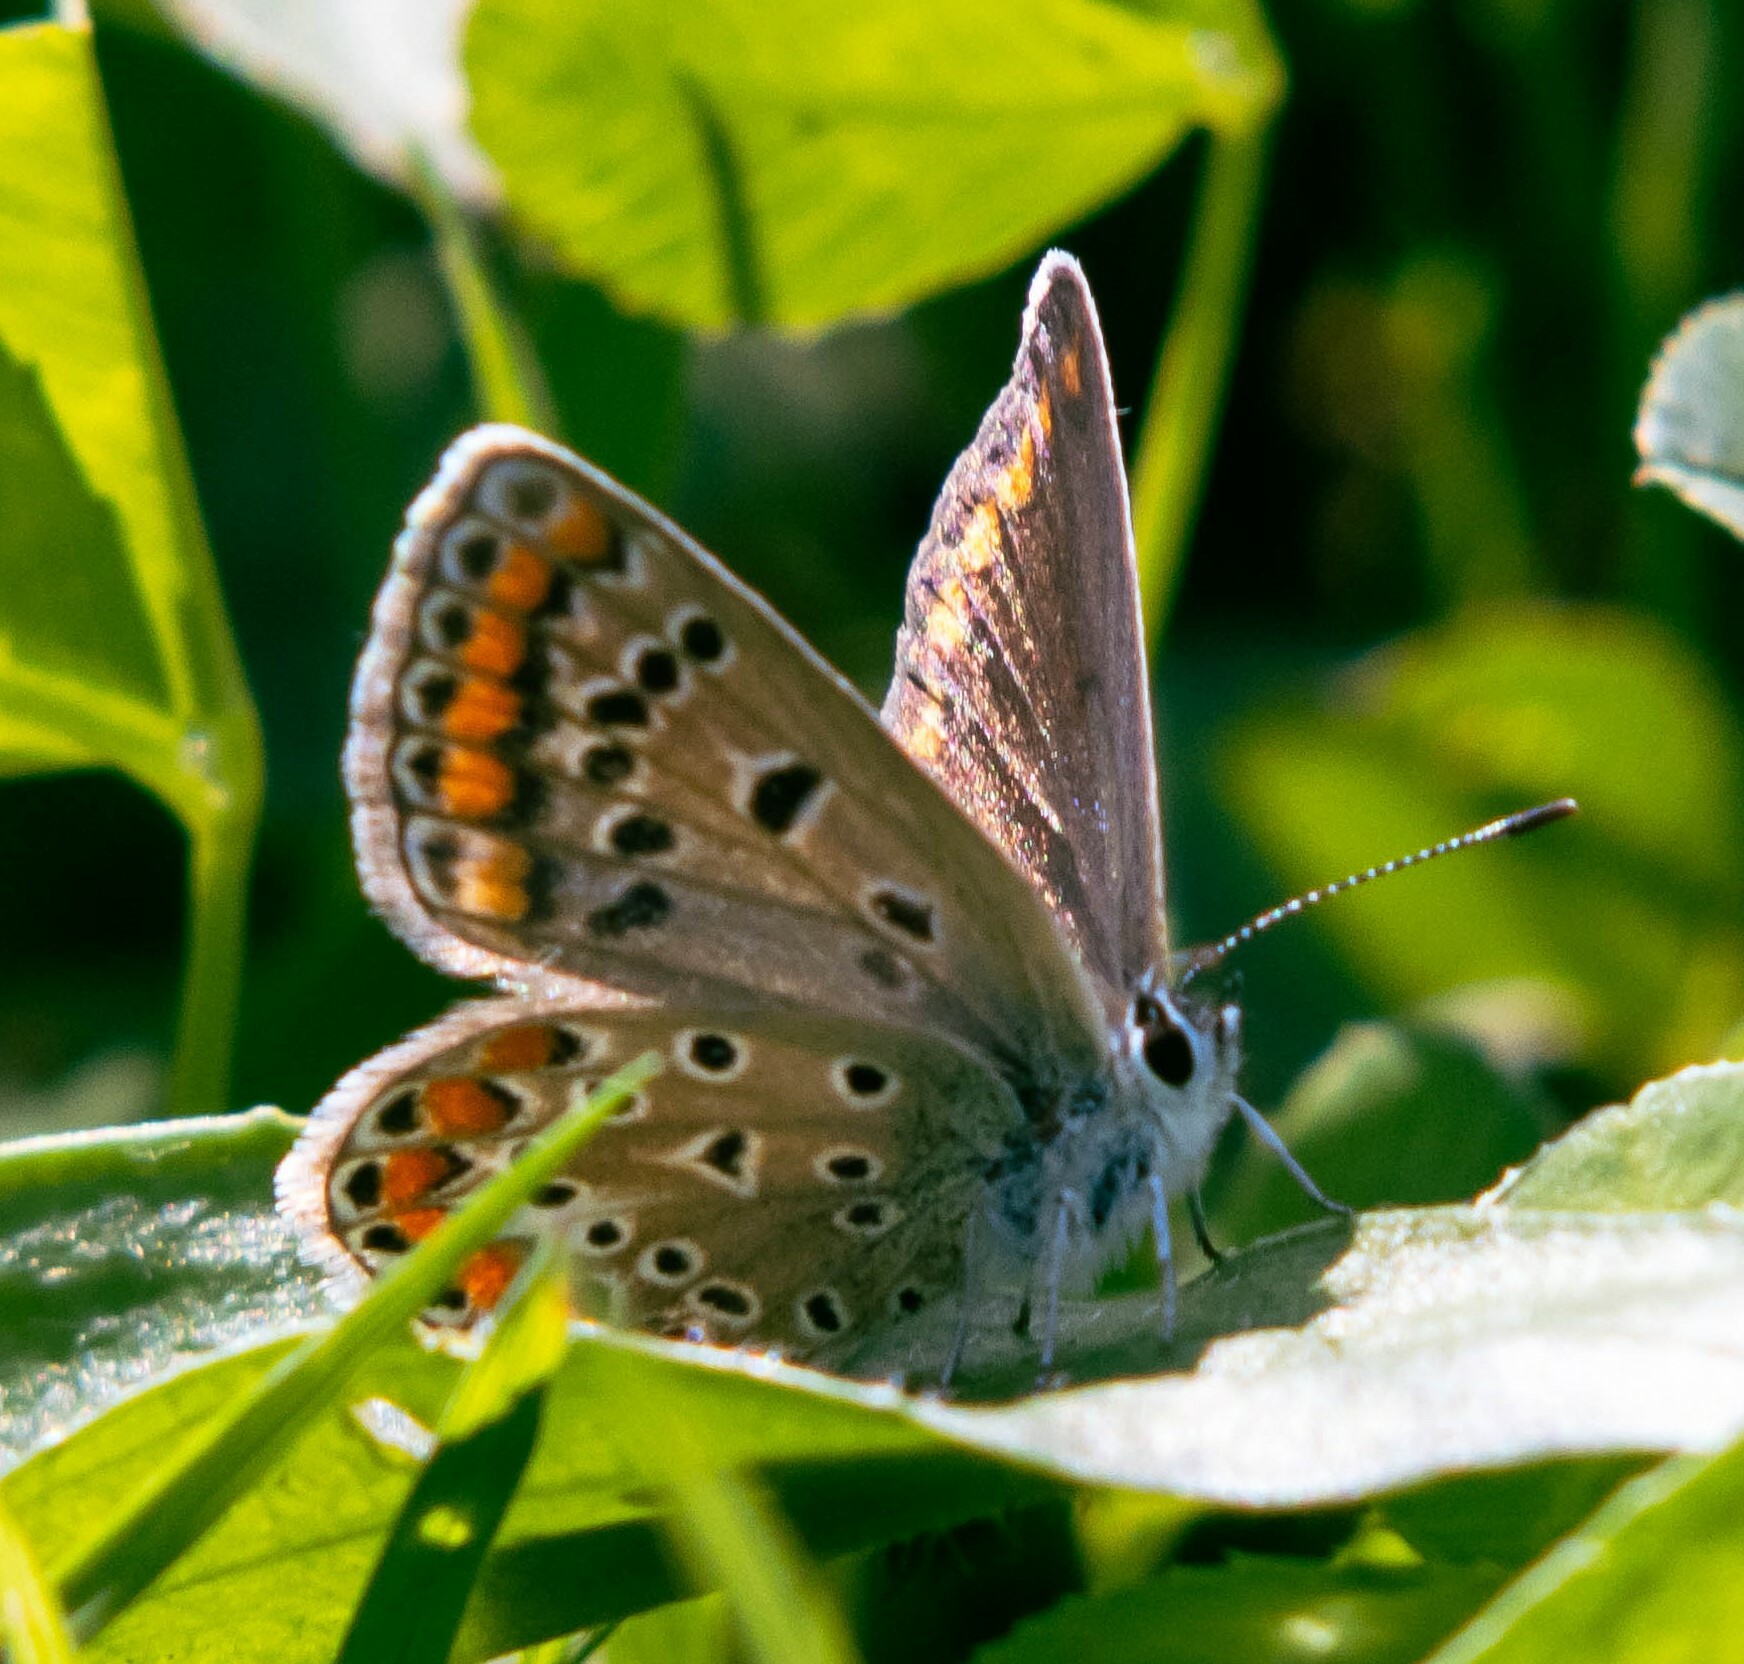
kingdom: Animalia
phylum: Arthropoda
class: Insecta
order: Lepidoptera
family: Lycaenidae
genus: Polyommatus
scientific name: Polyommatus icarus
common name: Common blue
